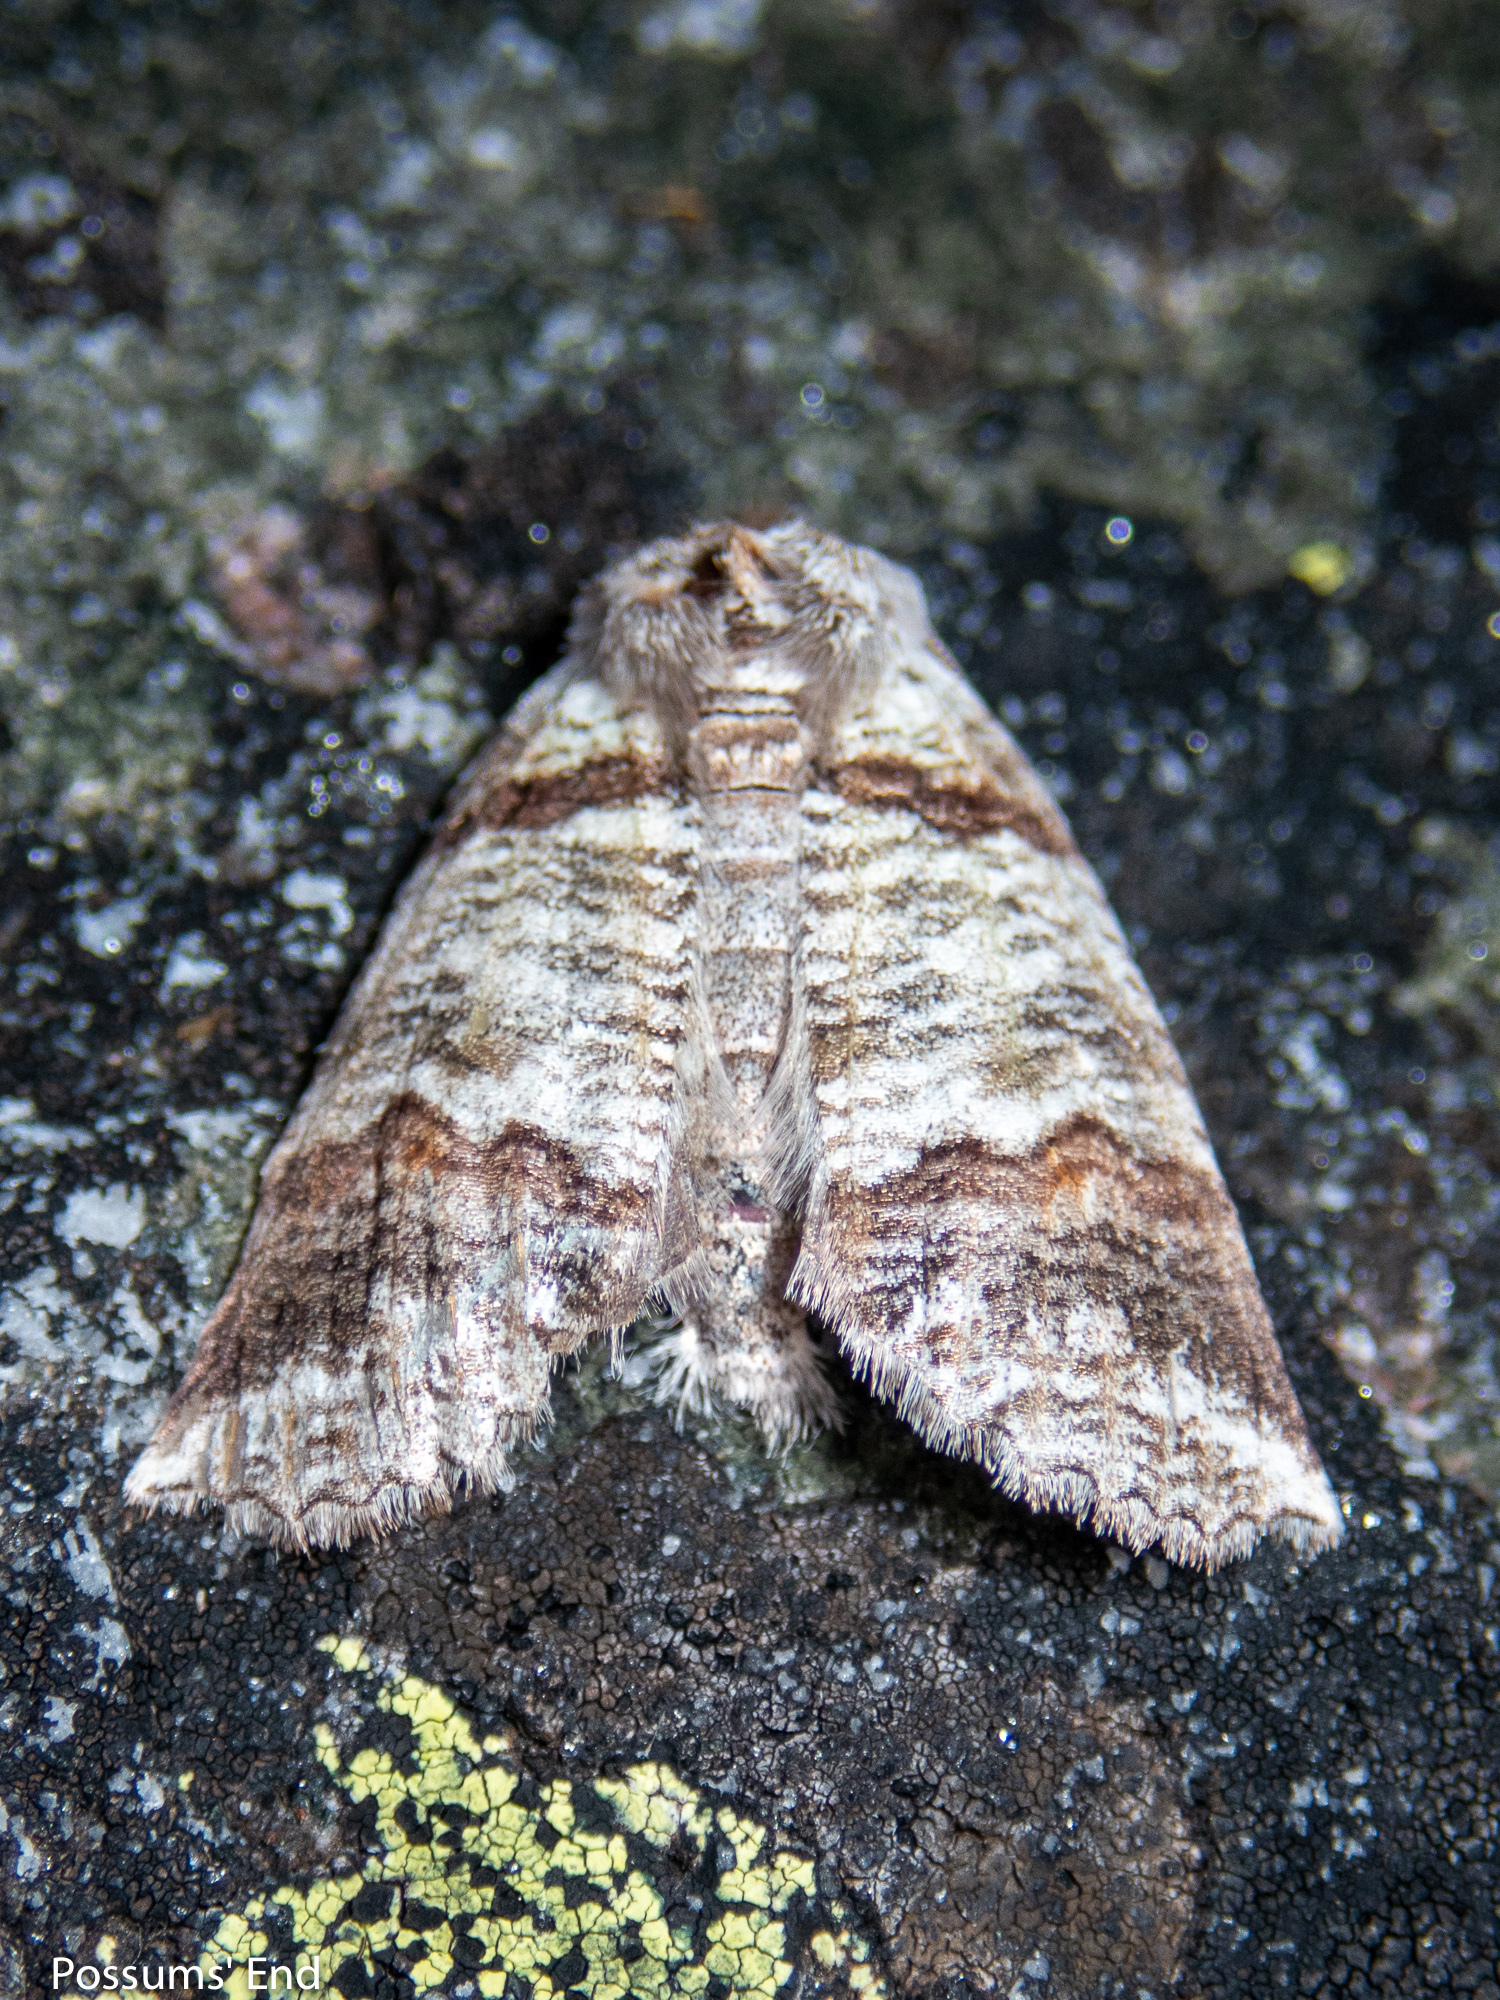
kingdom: Animalia
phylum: Arthropoda
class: Insecta
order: Lepidoptera
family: Geometridae
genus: Declana
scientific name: Declana
